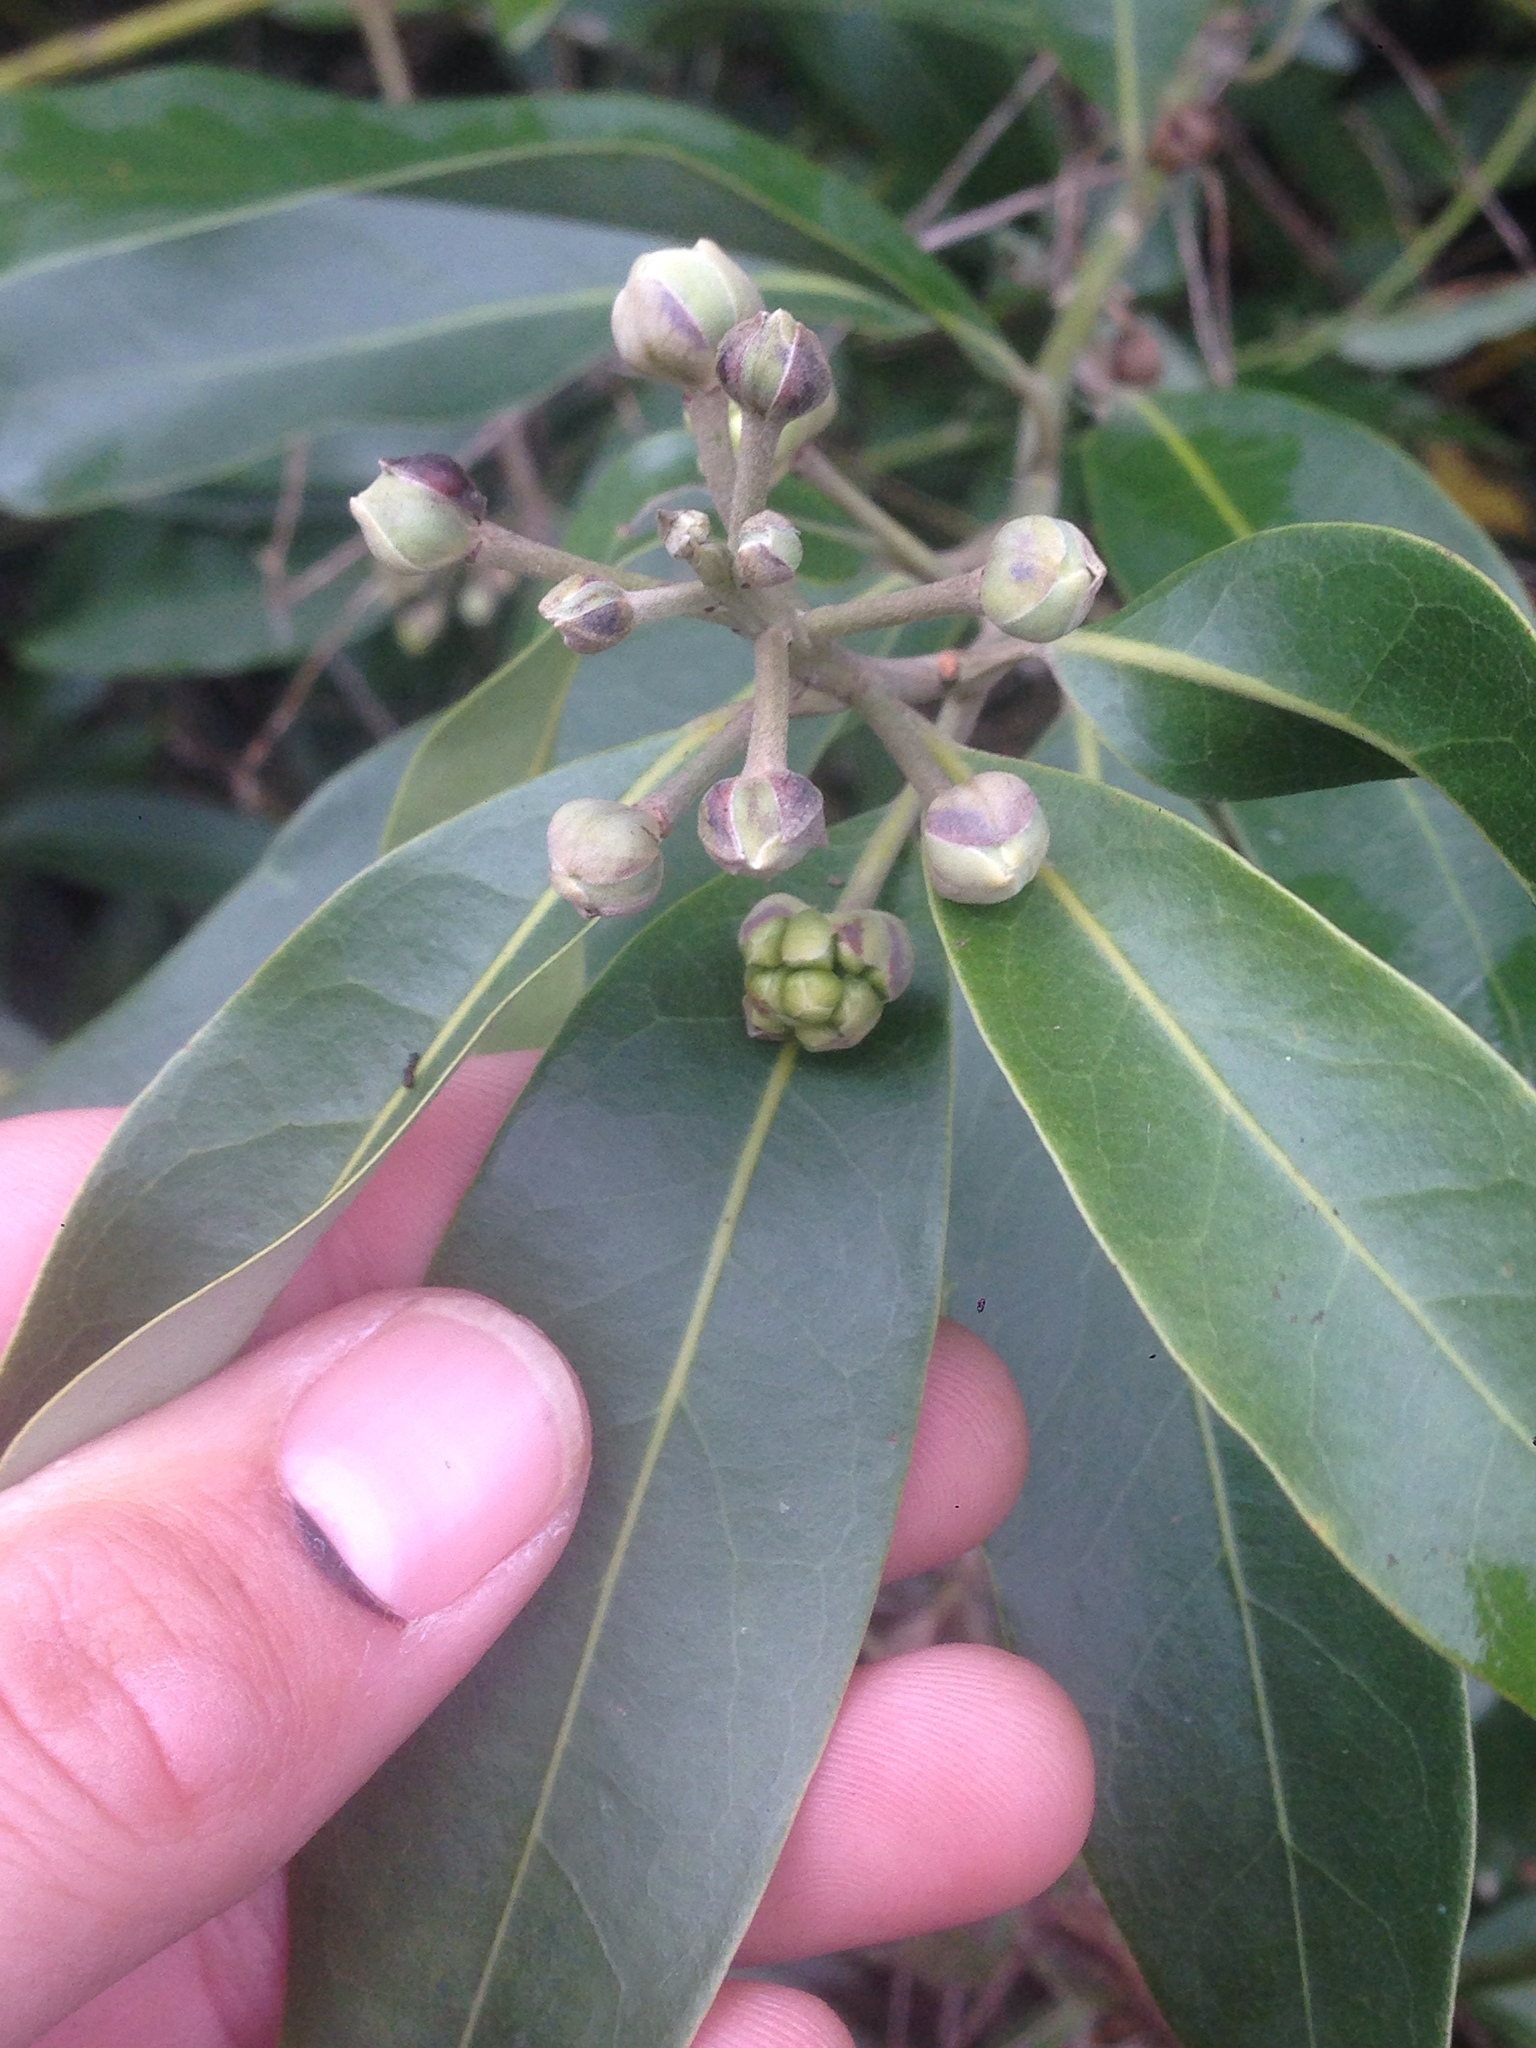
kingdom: Plantae
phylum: Tracheophyta
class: Magnoliopsida
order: Laurales
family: Lauraceae
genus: Umbellularia
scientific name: Umbellularia californica
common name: California bay
